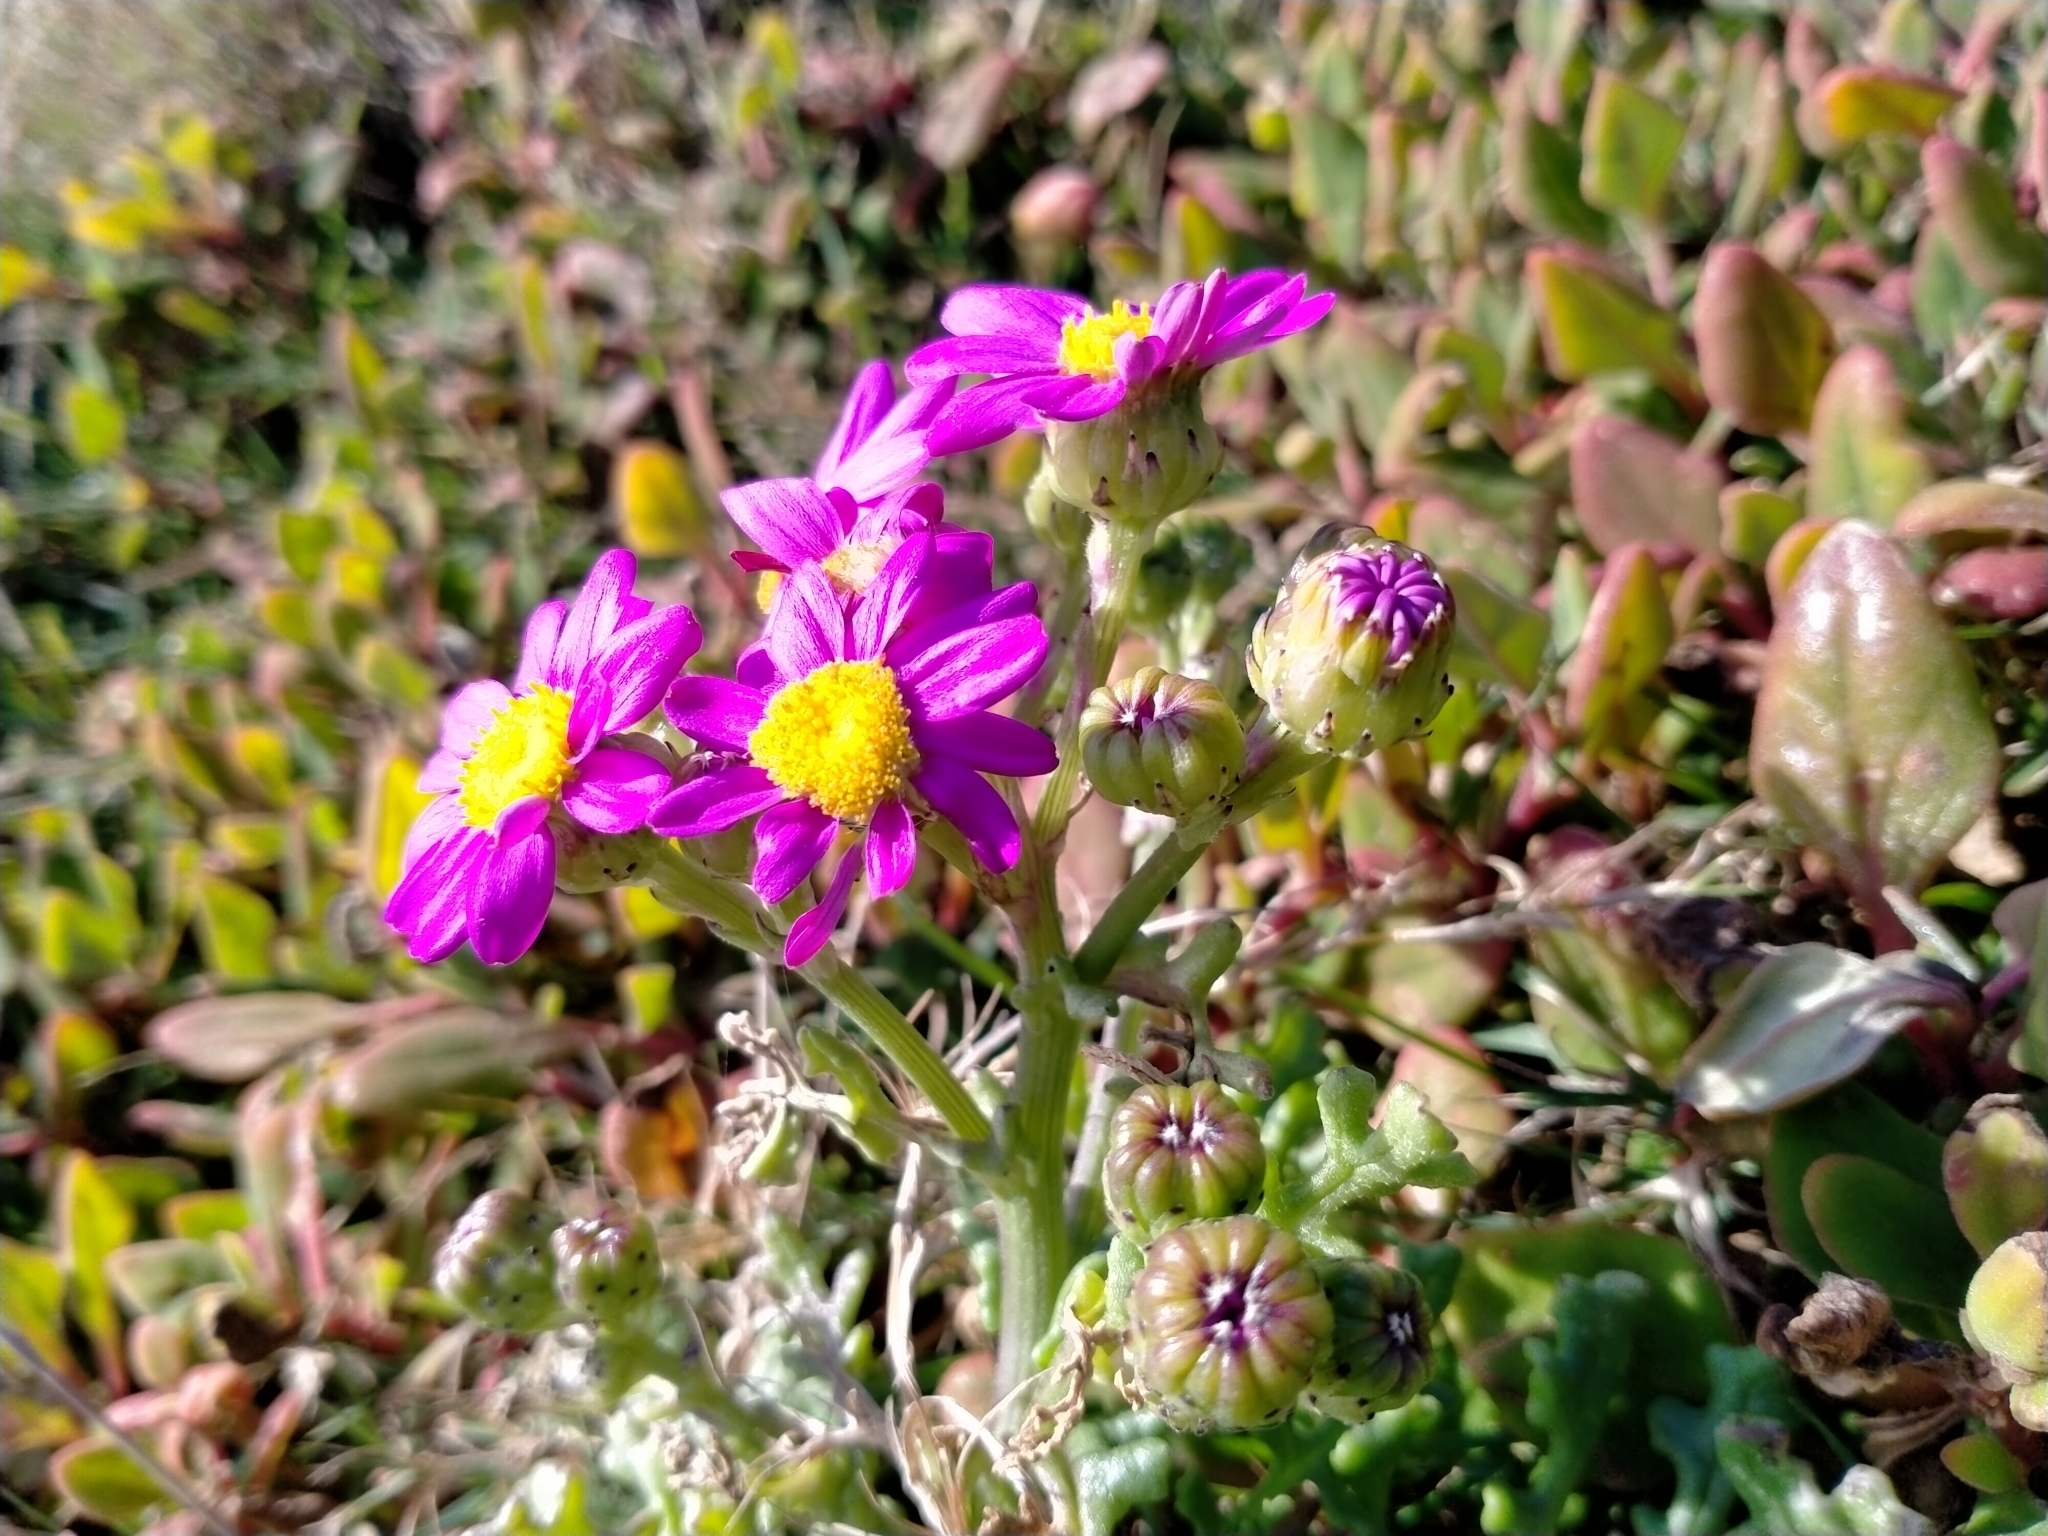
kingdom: Plantae
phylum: Tracheophyta
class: Magnoliopsida
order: Asterales
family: Asteraceae
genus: Senecio
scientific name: Senecio elegans
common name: Purple groundsel
